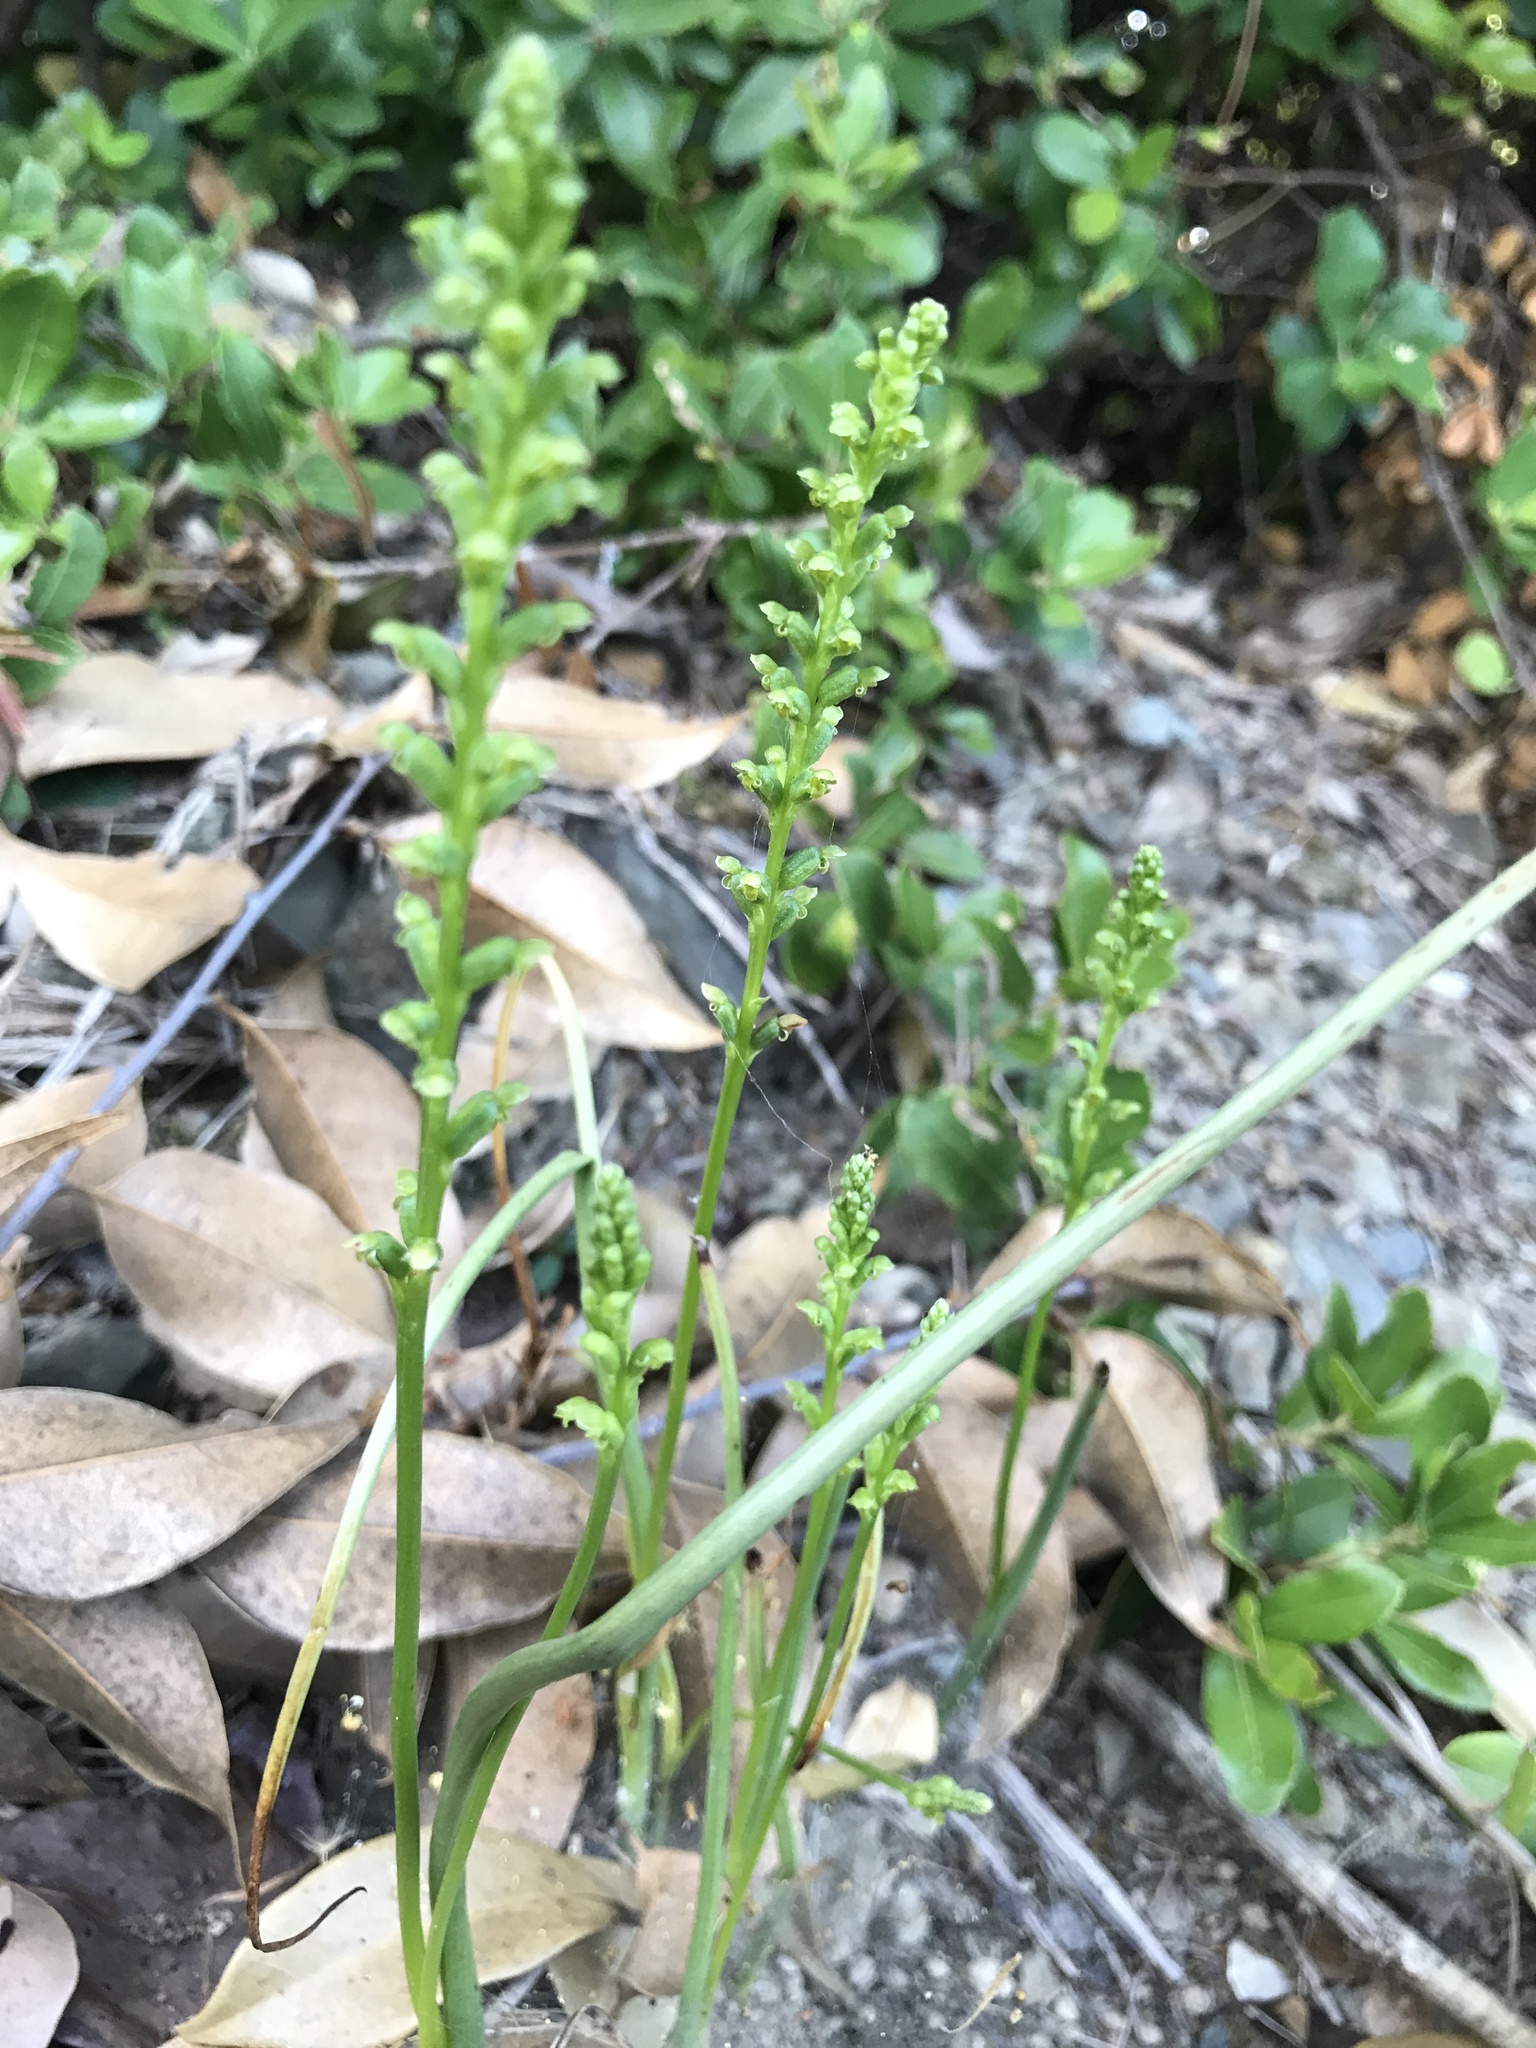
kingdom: Plantae
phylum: Tracheophyta
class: Liliopsida
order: Asparagales
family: Orchidaceae
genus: Microtis
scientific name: Microtis unifolia
